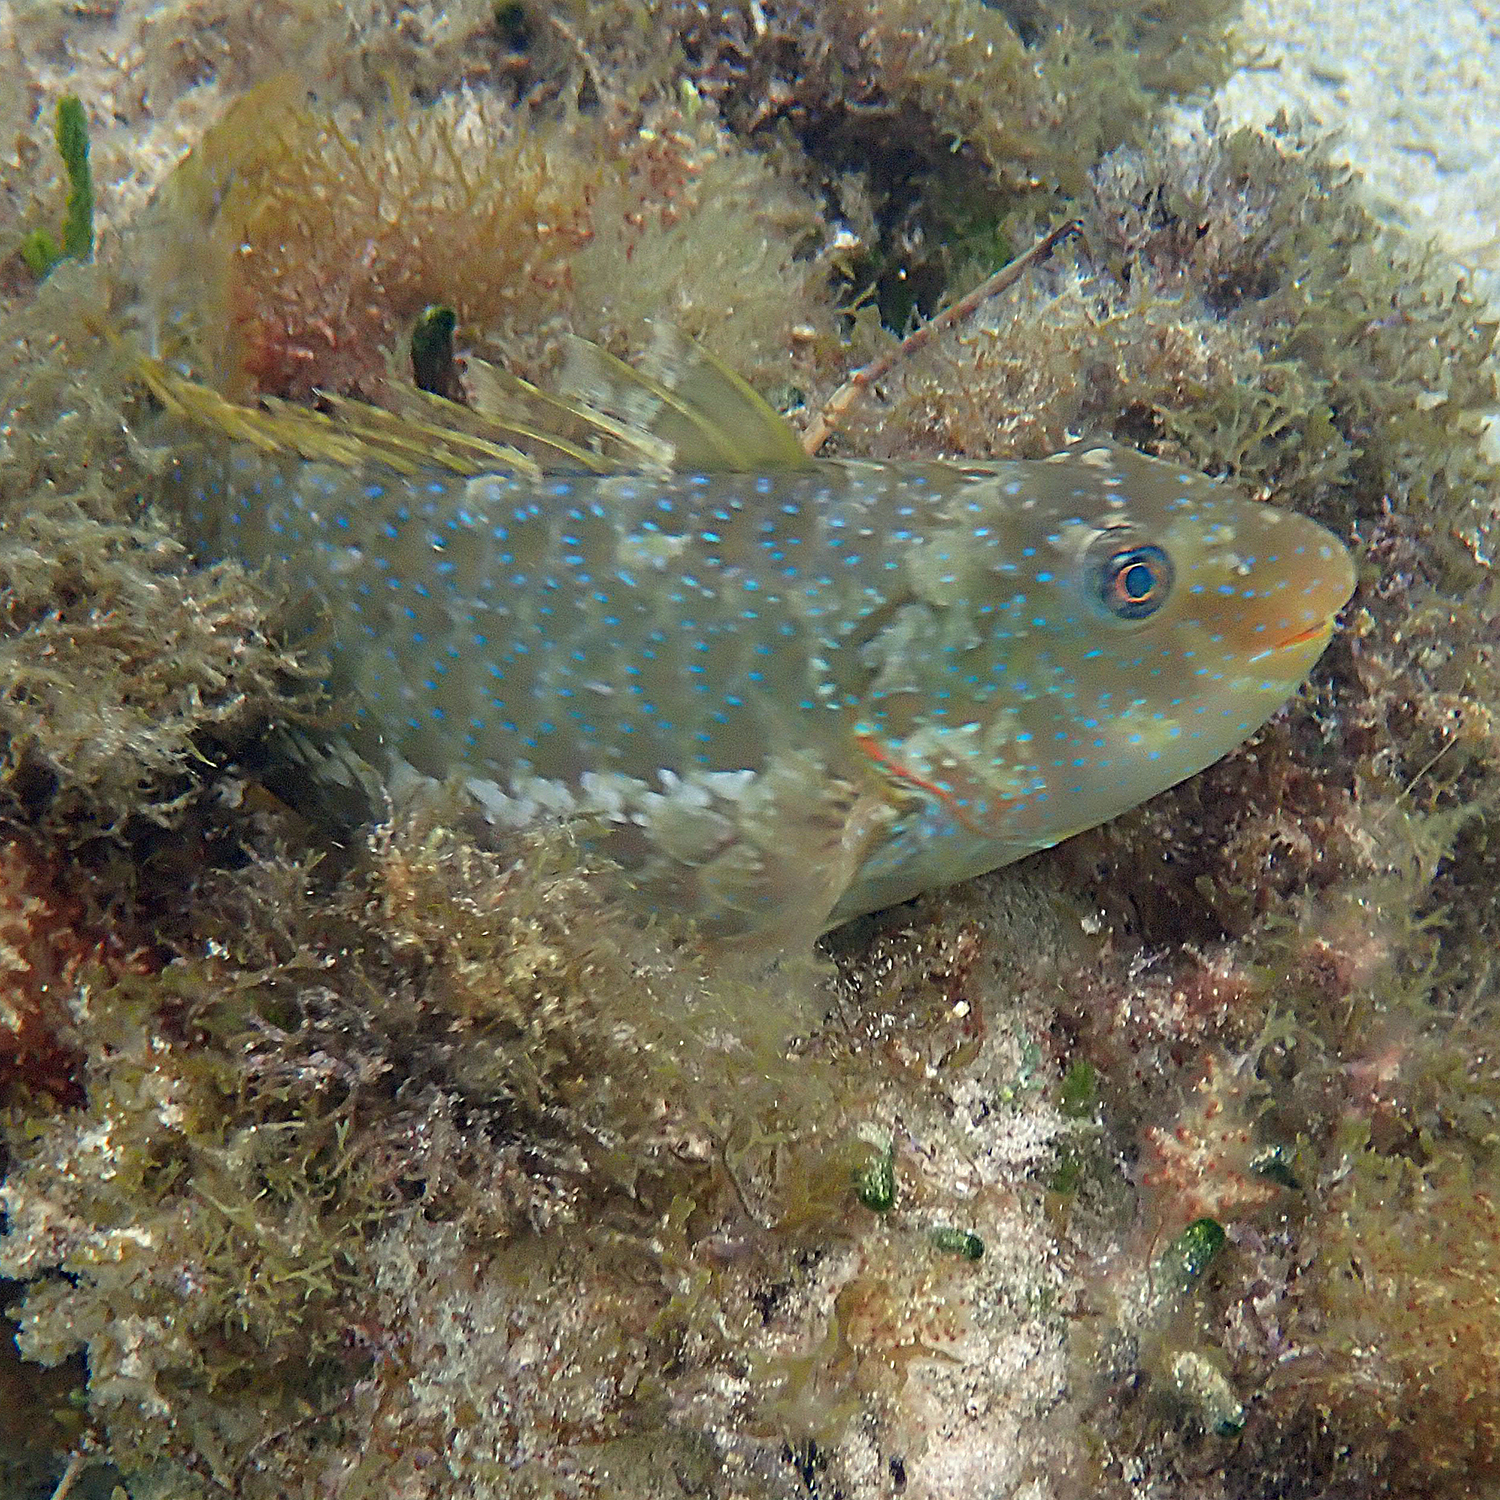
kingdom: Animalia
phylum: Chordata
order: Perciformes
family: Scaridae
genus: Leptoscarus
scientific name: Leptoscarus vaigiensis
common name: Marbled parrotfish
